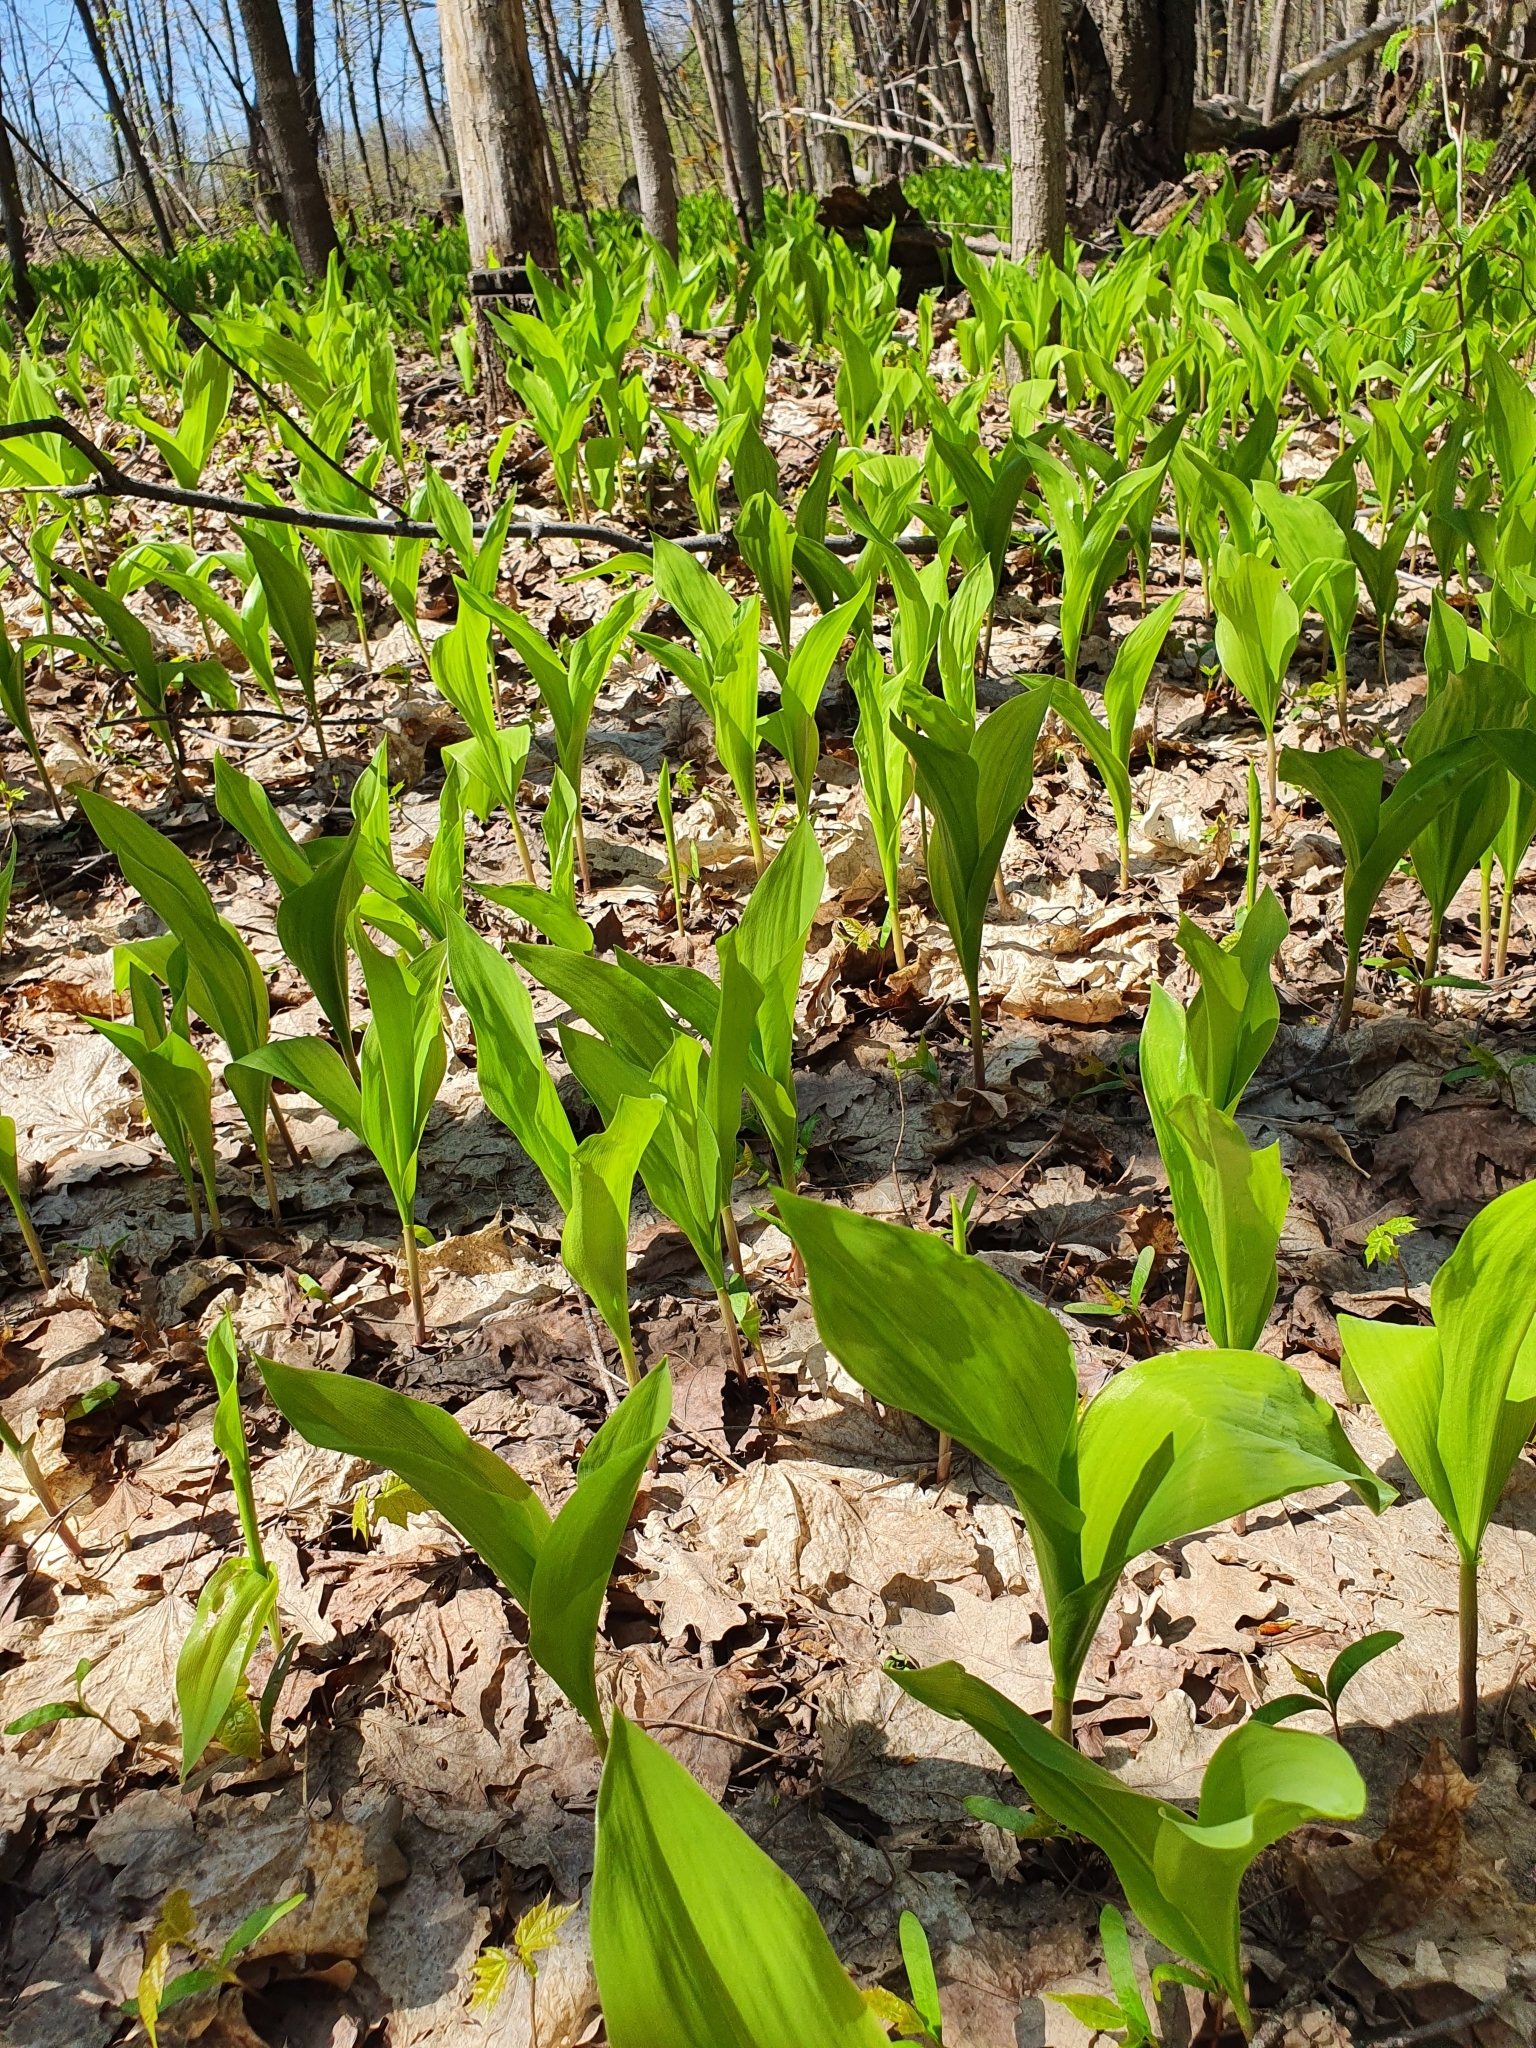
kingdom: Plantae
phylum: Tracheophyta
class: Liliopsida
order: Asparagales
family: Asparagaceae
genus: Convallaria
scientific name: Convallaria majalis
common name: Lily-of-the-valley
